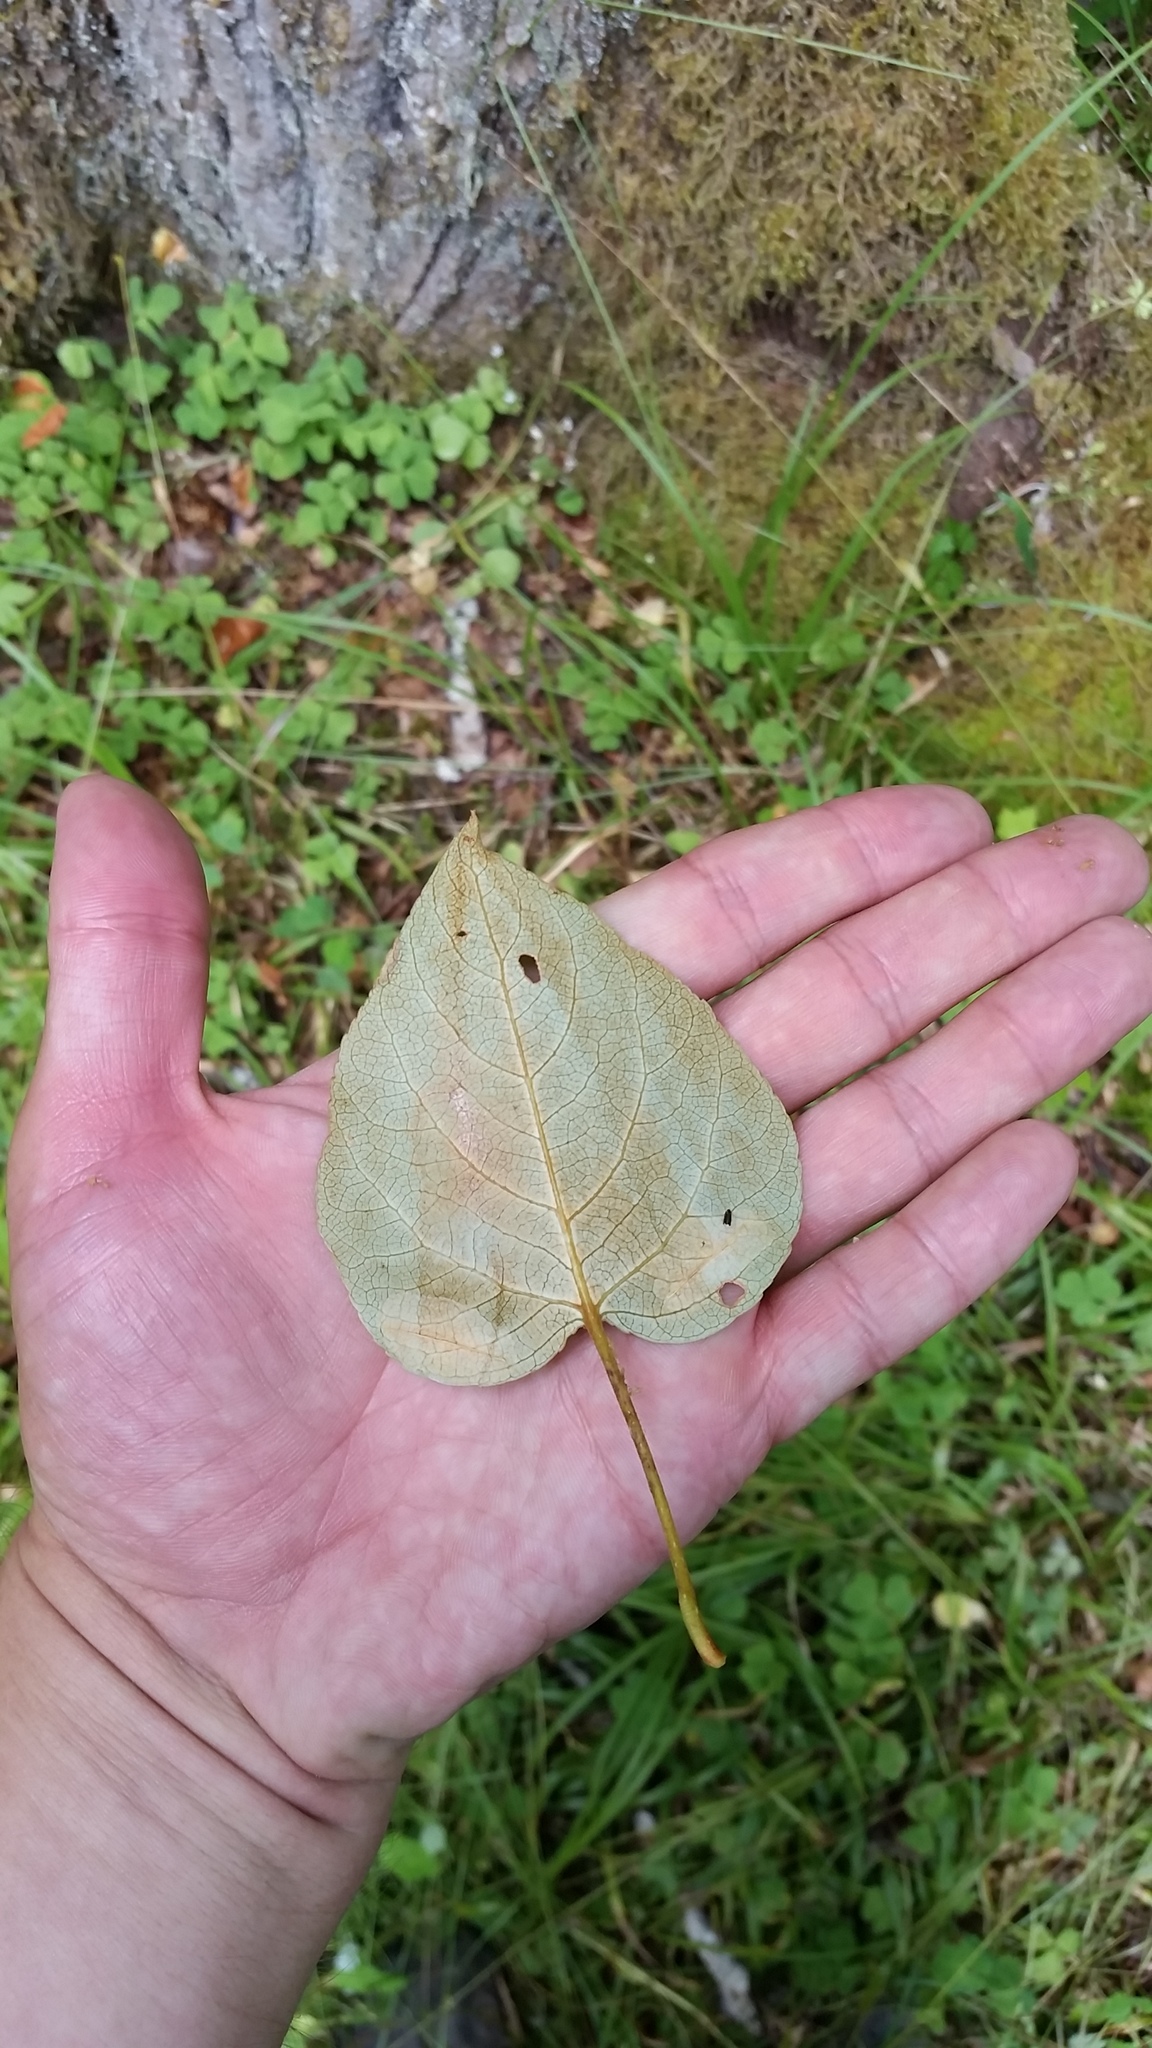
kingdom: Plantae
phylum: Tracheophyta
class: Magnoliopsida
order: Malpighiales
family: Salicaceae
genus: Populus
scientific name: Populus trichocarpa
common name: Black cottonwood
